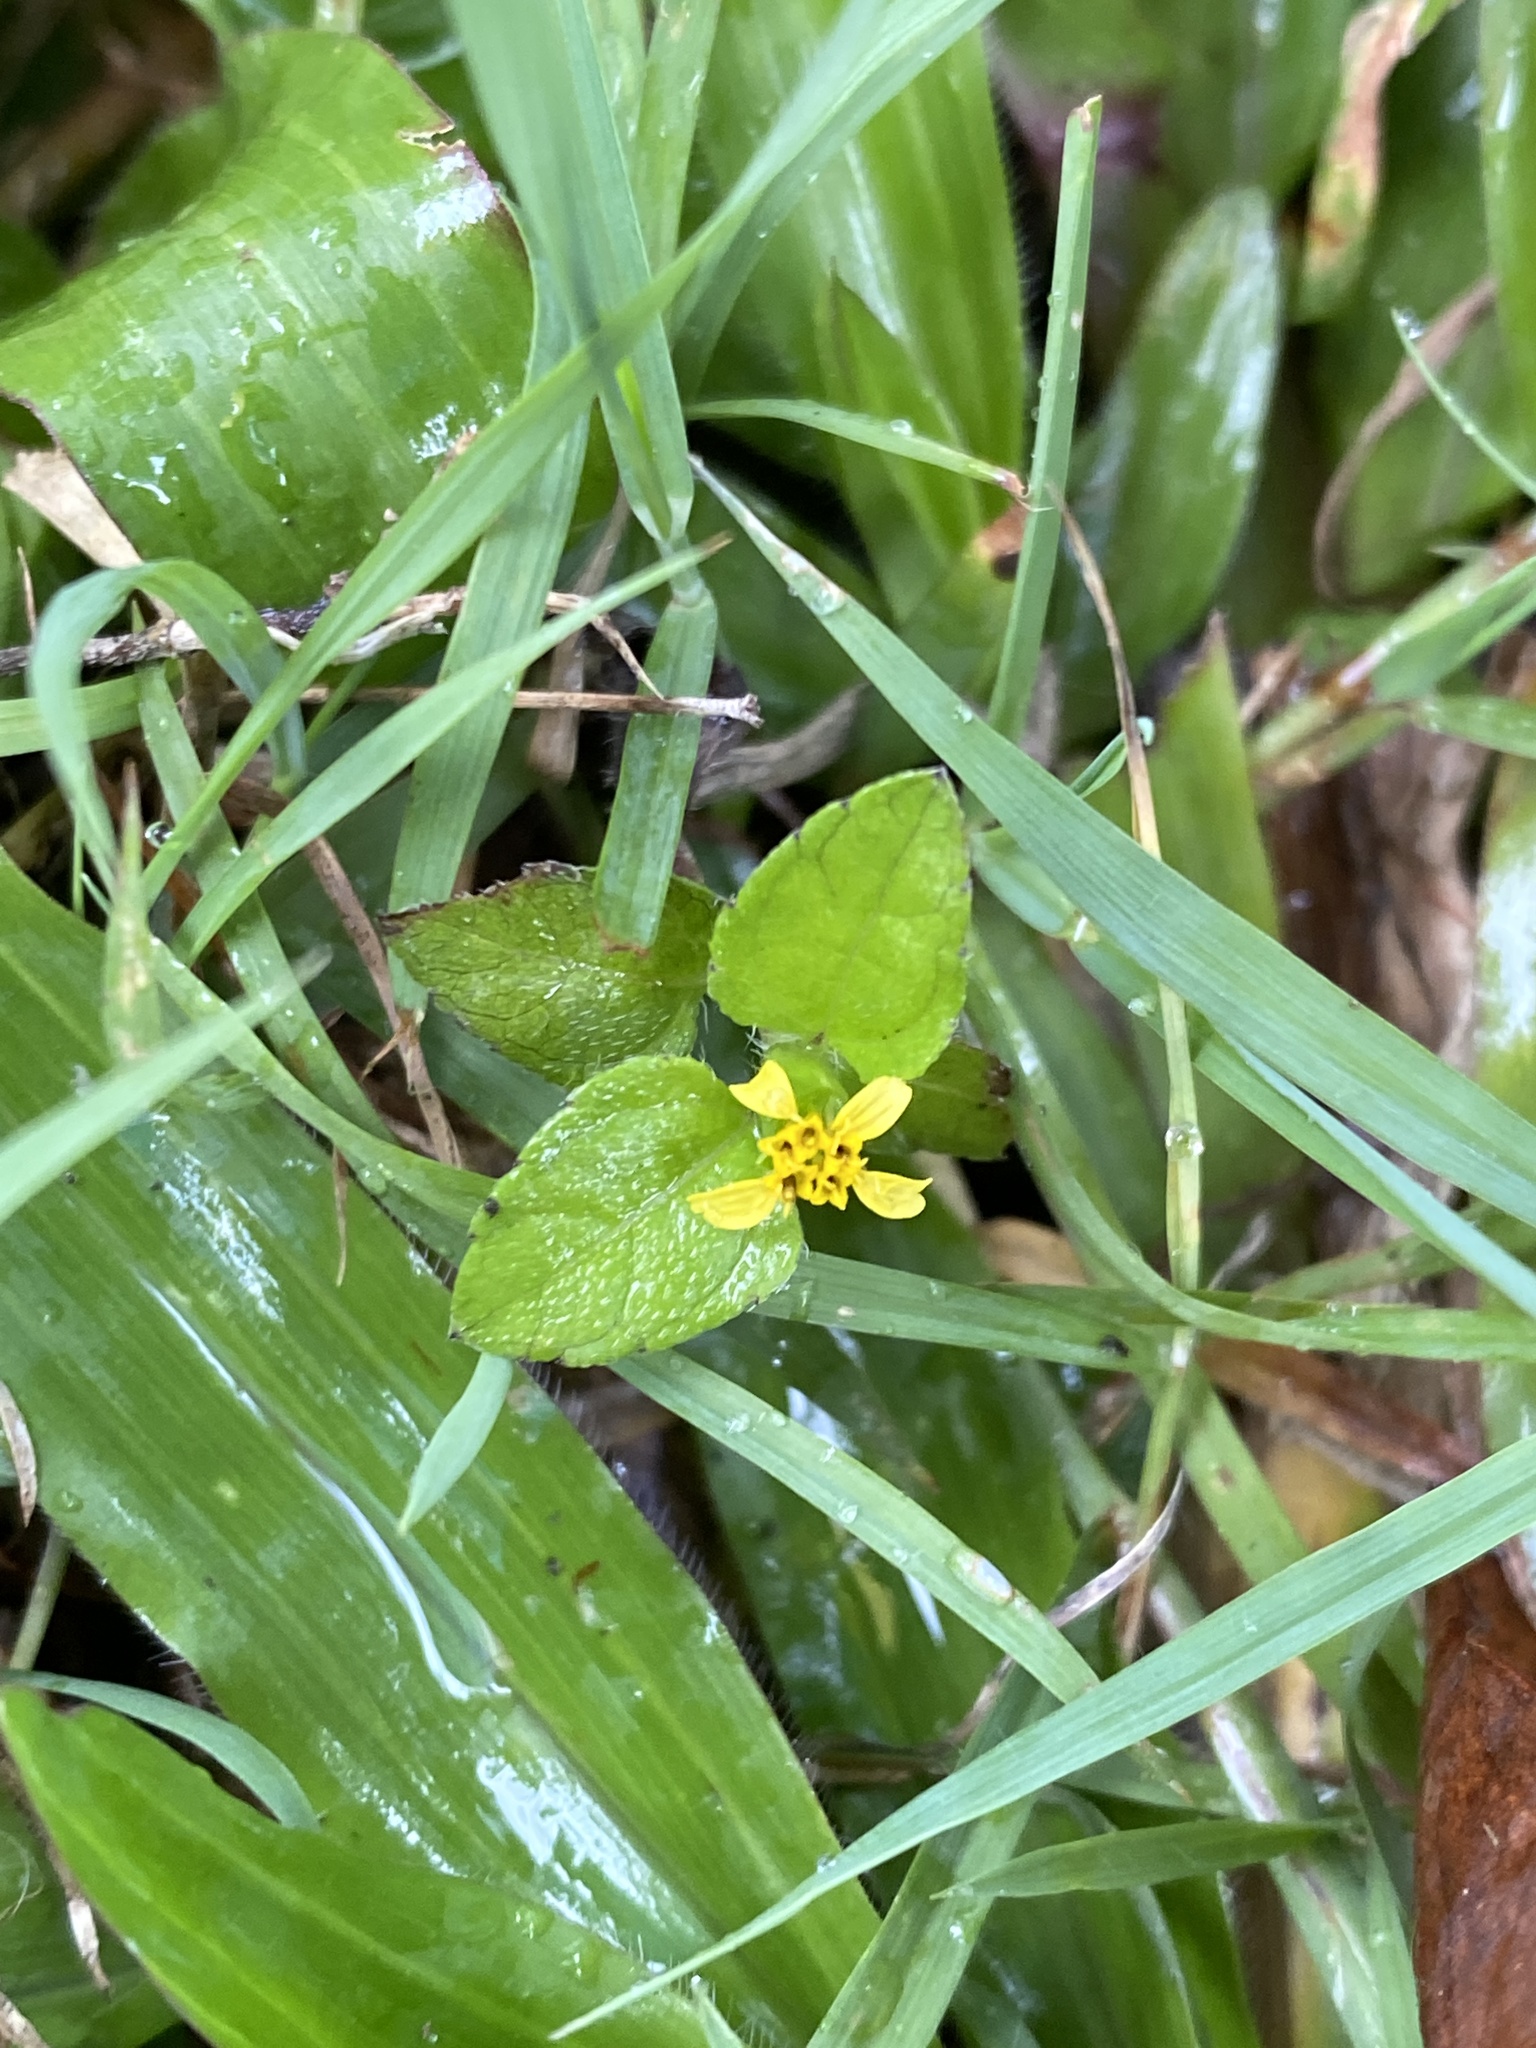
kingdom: Plantae
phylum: Tracheophyta
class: Magnoliopsida
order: Asterales
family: Asteraceae
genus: Calyptocarpus
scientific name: Calyptocarpus vialis
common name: Straggler daisy
